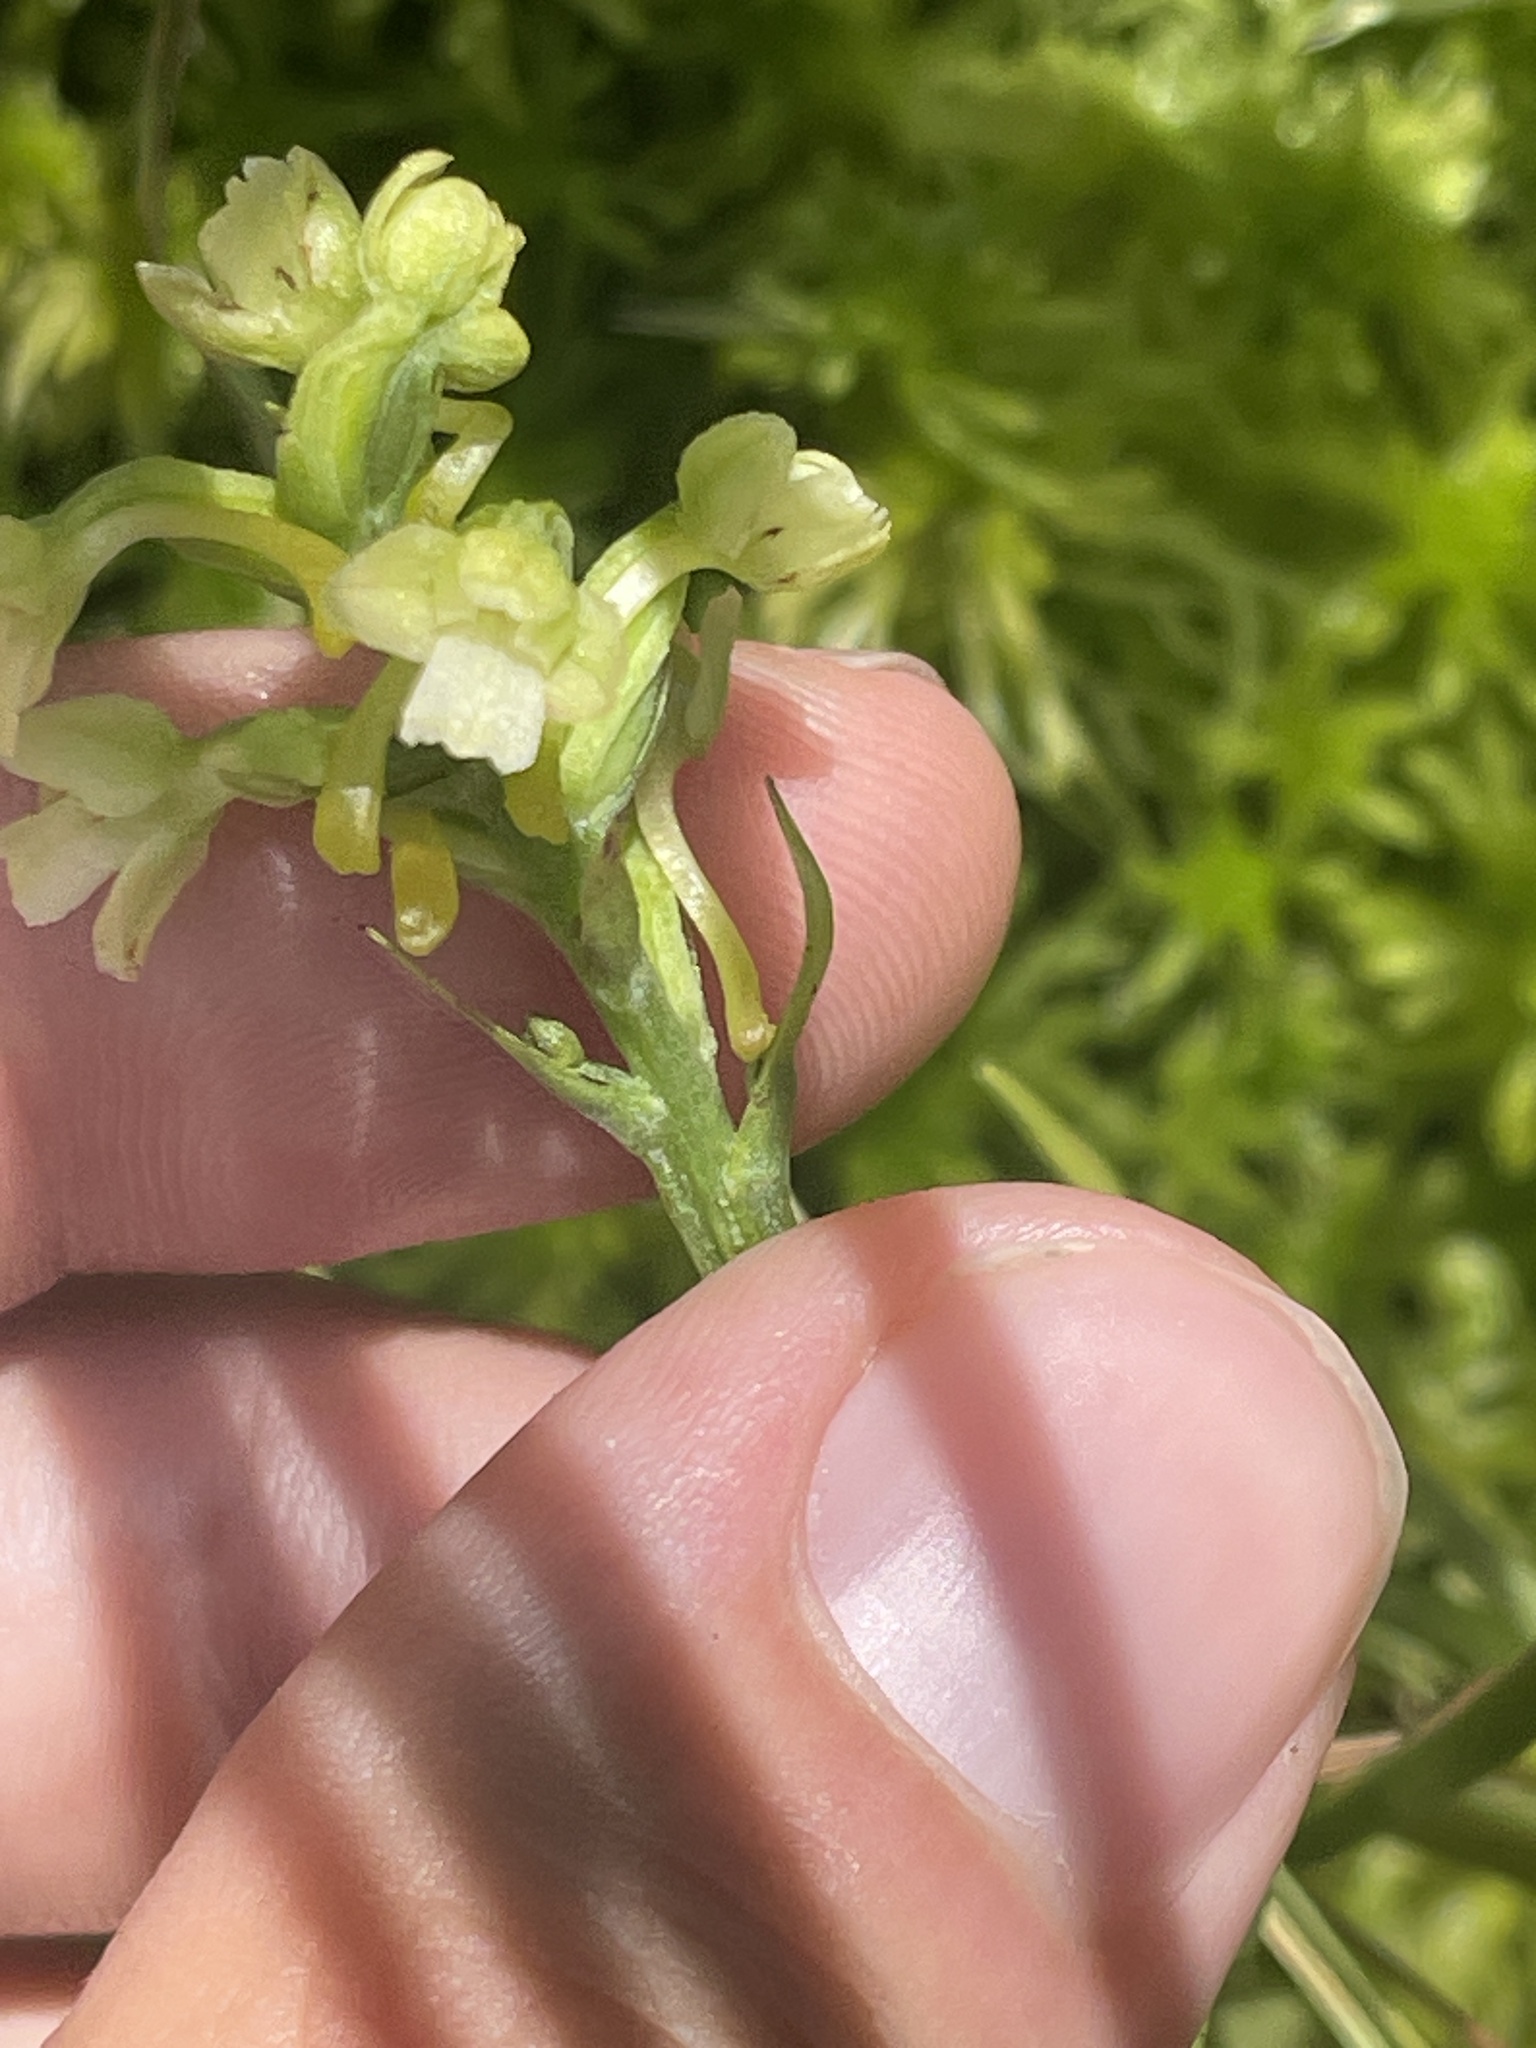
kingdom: Plantae
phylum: Tracheophyta
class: Liliopsida
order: Asparagales
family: Orchidaceae
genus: Platanthera
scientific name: Platanthera clavellata
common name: Club-spur orchid
